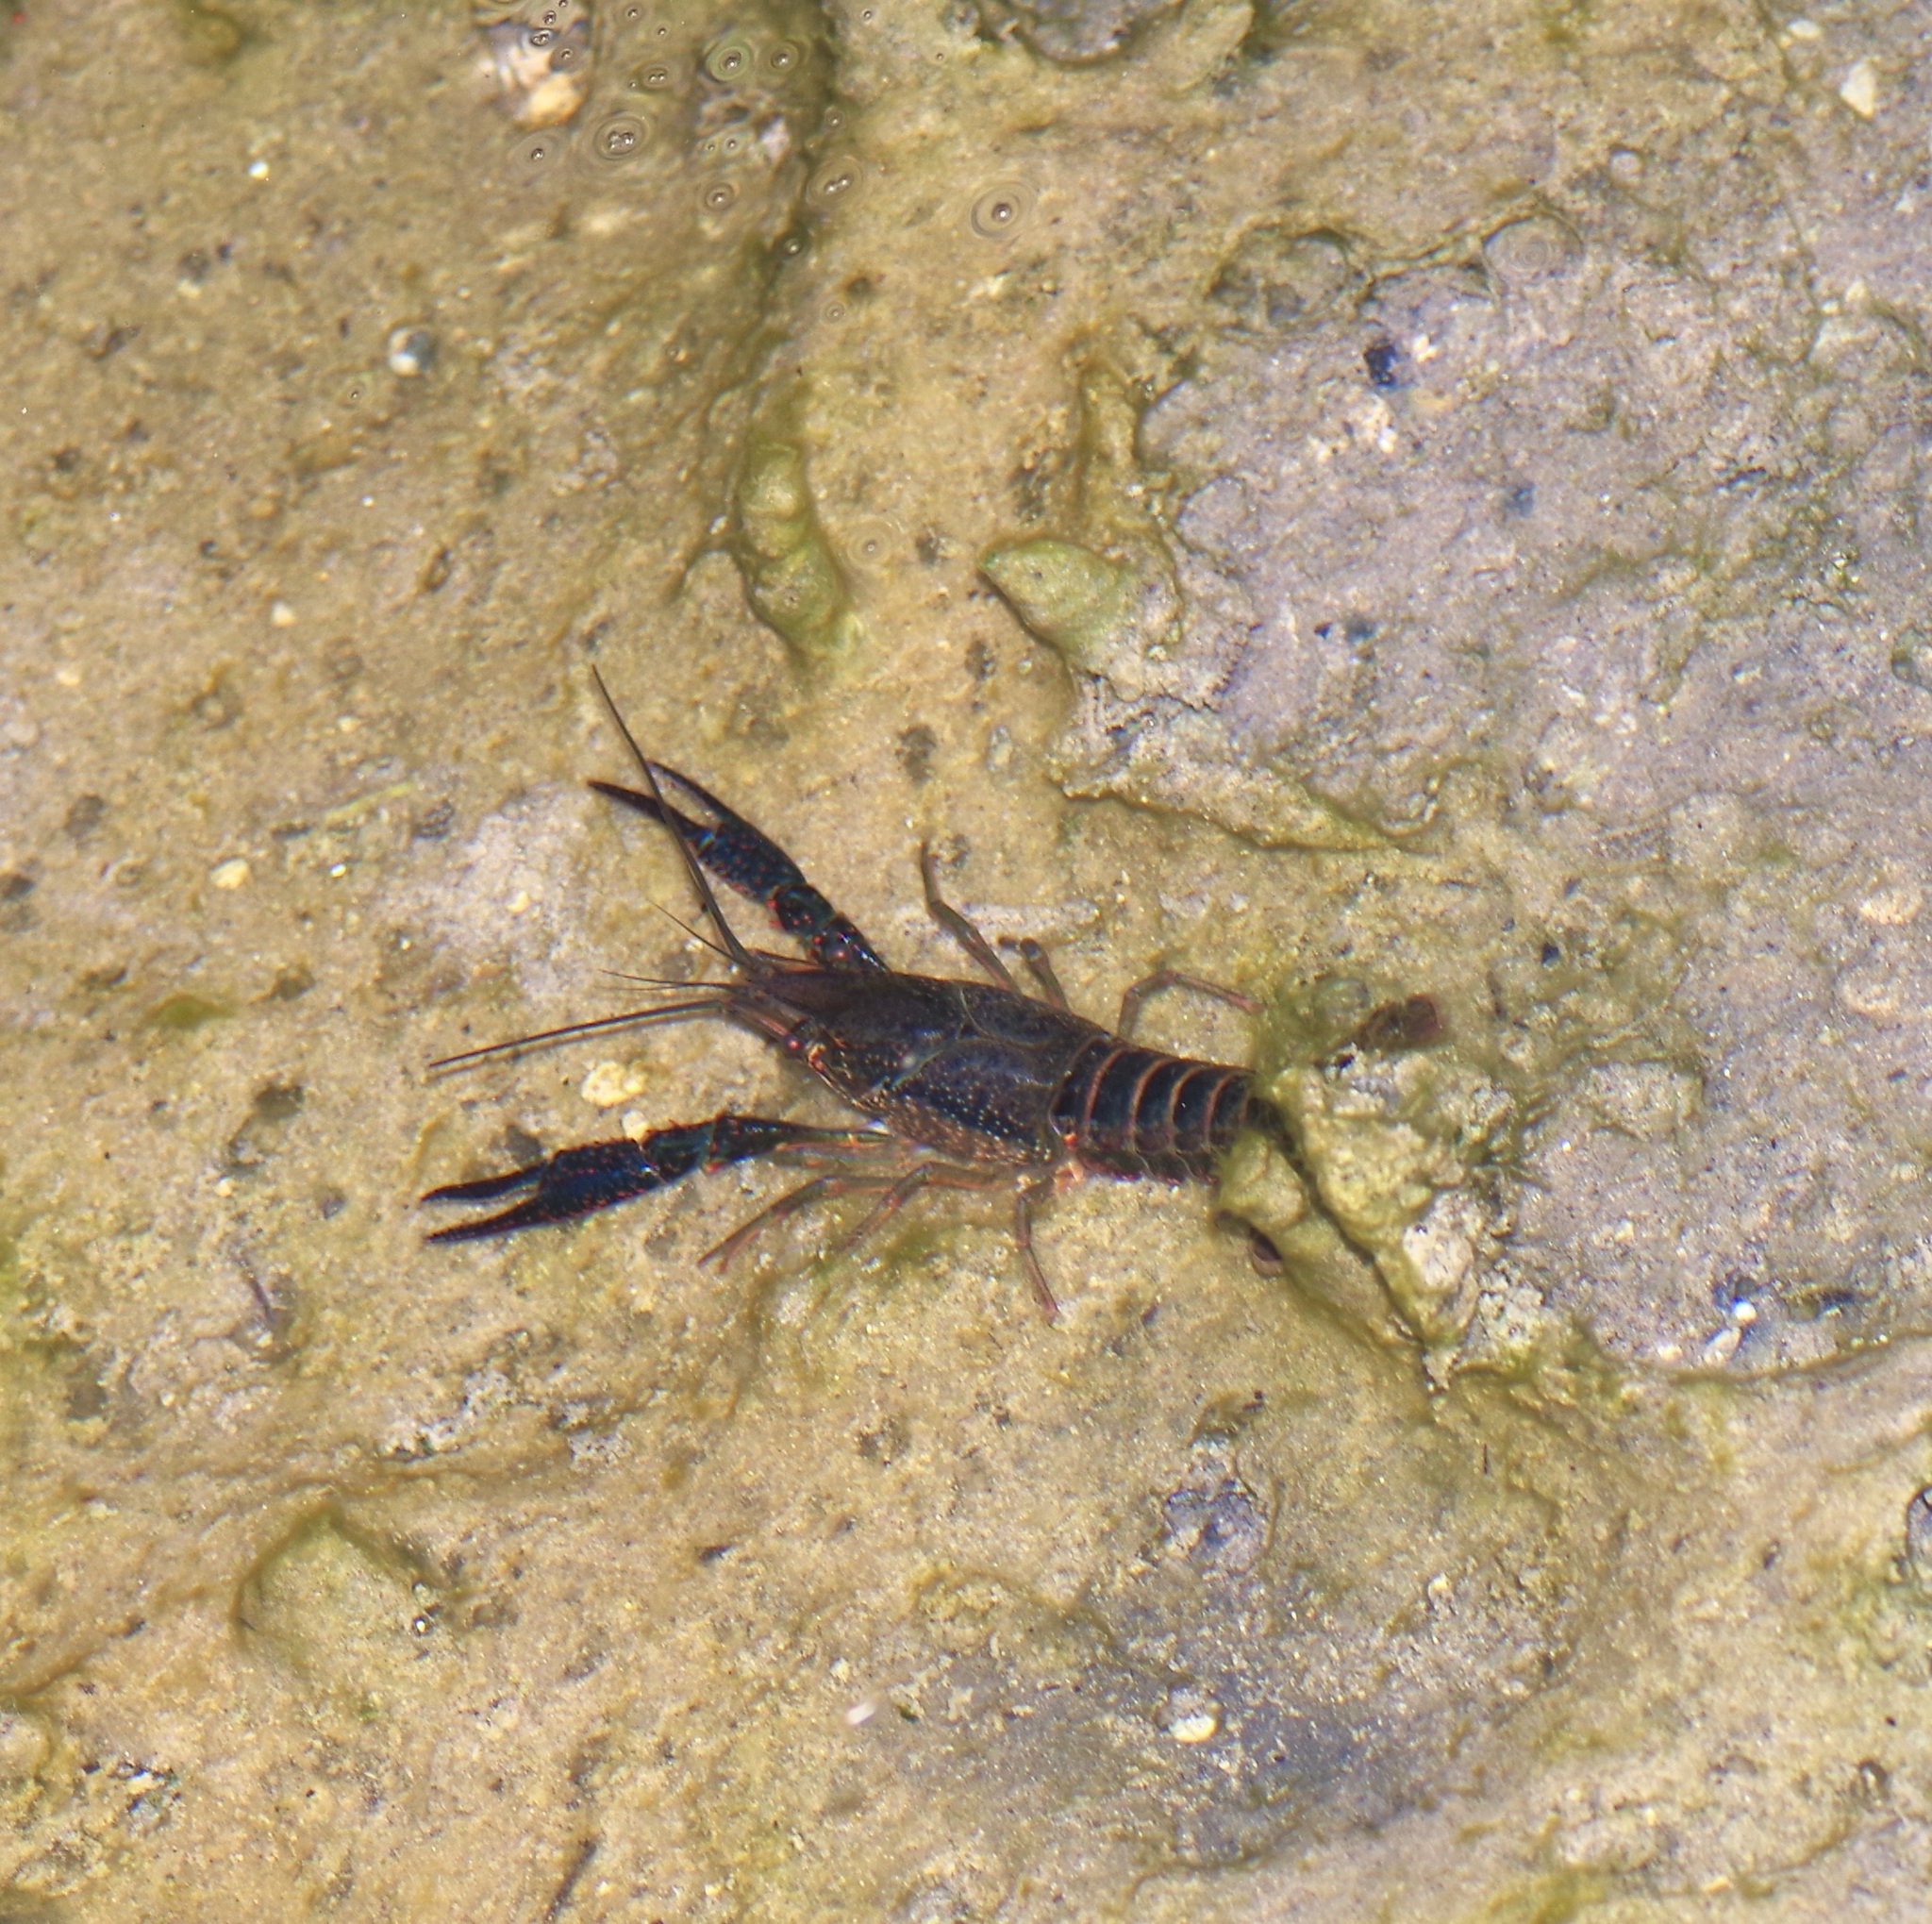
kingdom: Animalia
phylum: Arthropoda
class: Malacostraca
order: Decapoda
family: Cambaridae
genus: Procambarus
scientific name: Procambarus clarkii
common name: Red swamp crayfish
